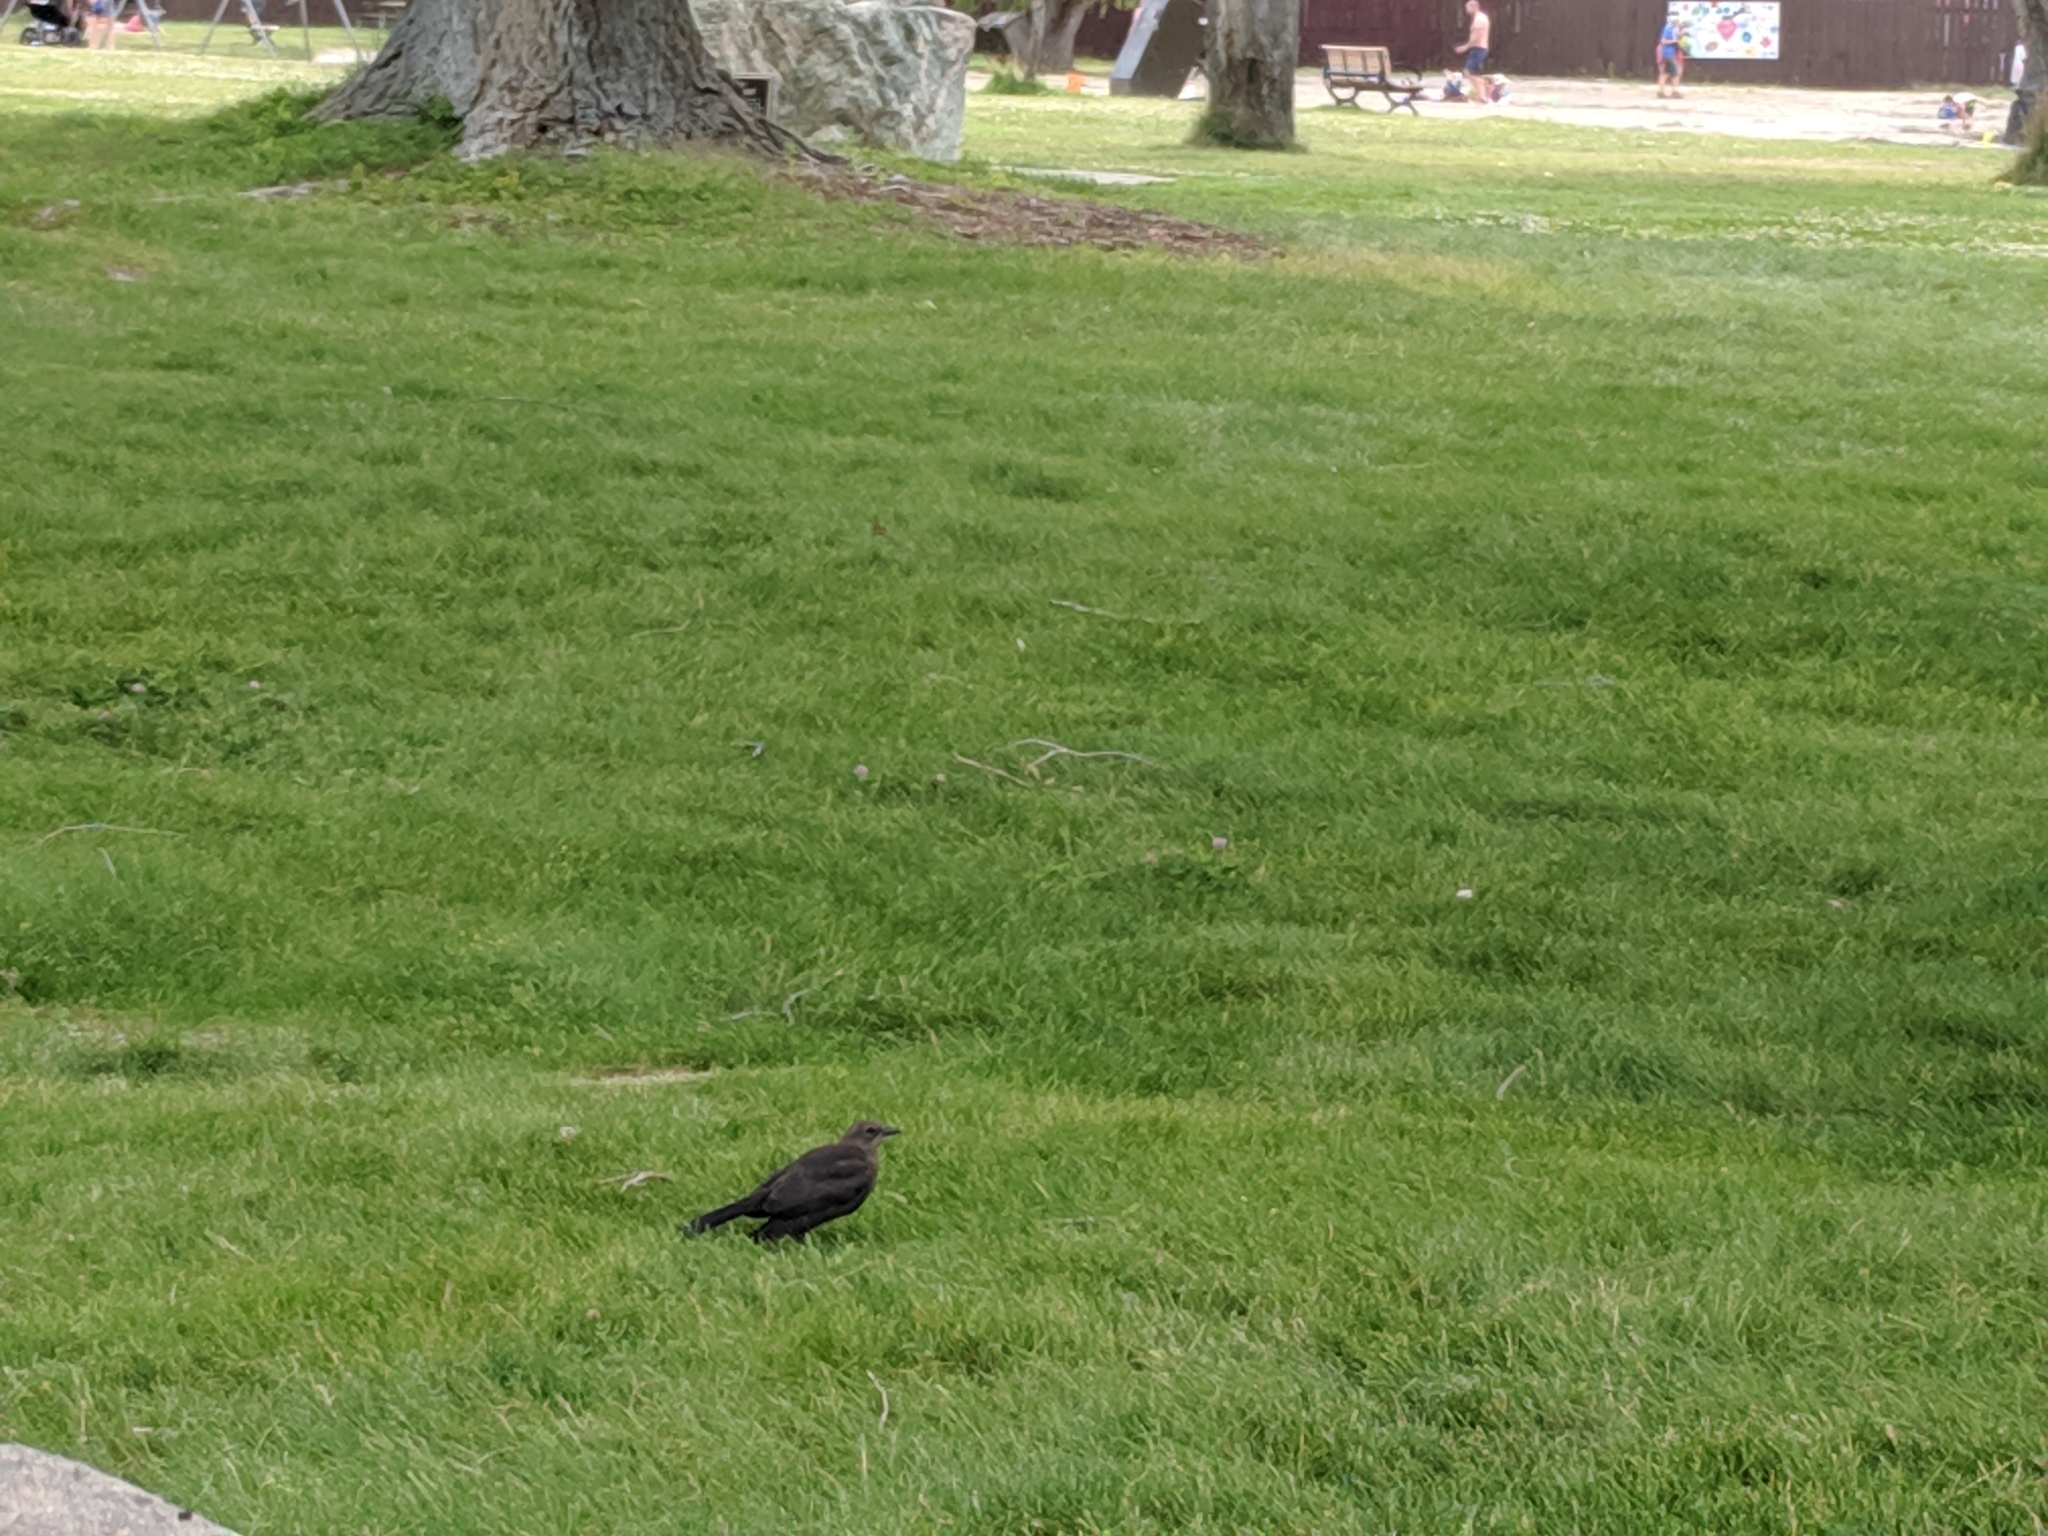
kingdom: Animalia
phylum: Chordata
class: Aves
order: Passeriformes
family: Icteridae
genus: Euphagus
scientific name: Euphagus cyanocephalus
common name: Brewer's blackbird
